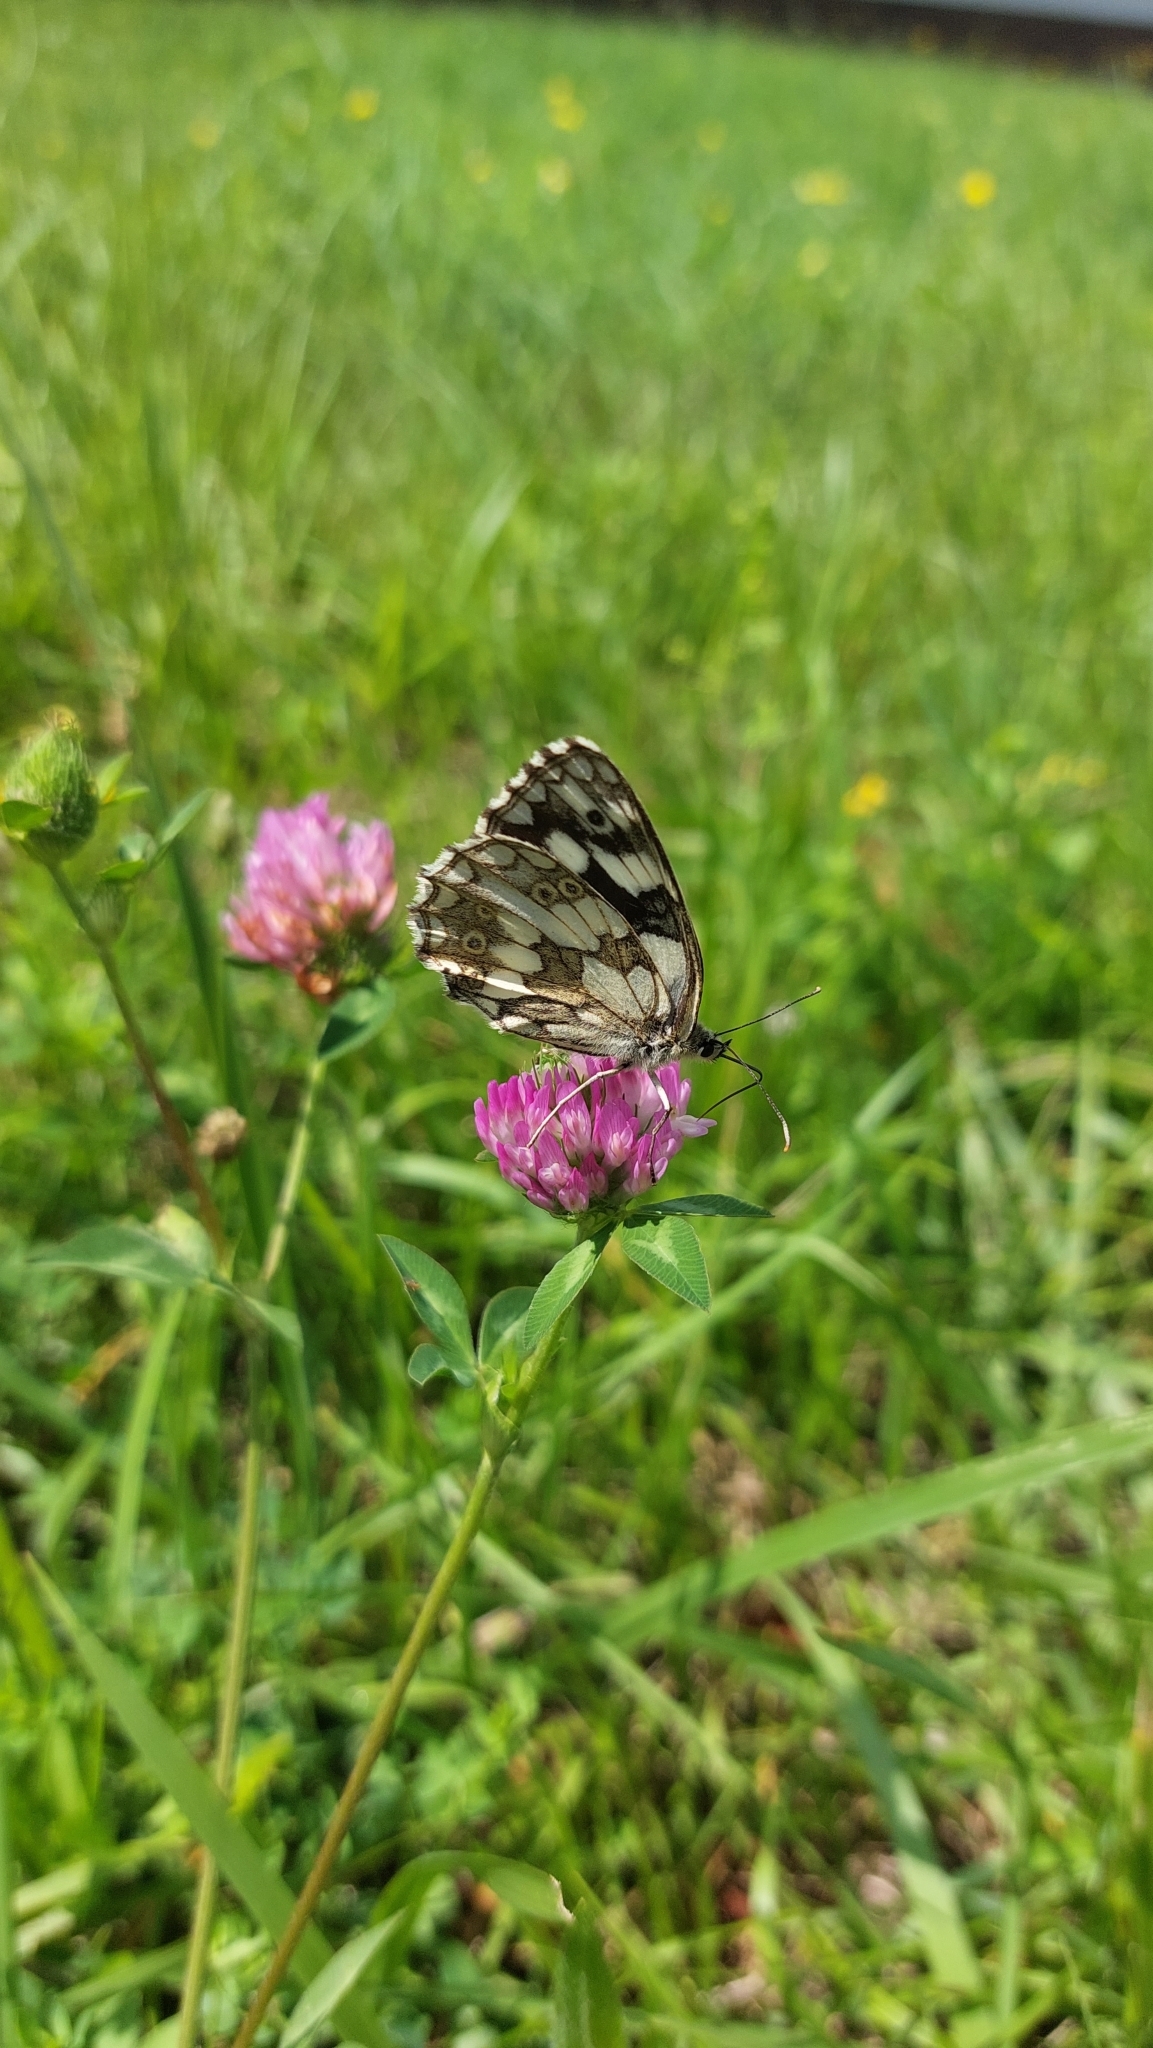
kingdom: Animalia
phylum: Arthropoda
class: Insecta
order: Lepidoptera
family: Nymphalidae
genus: Melanargia
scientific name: Melanargia galathea
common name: Marbled white
